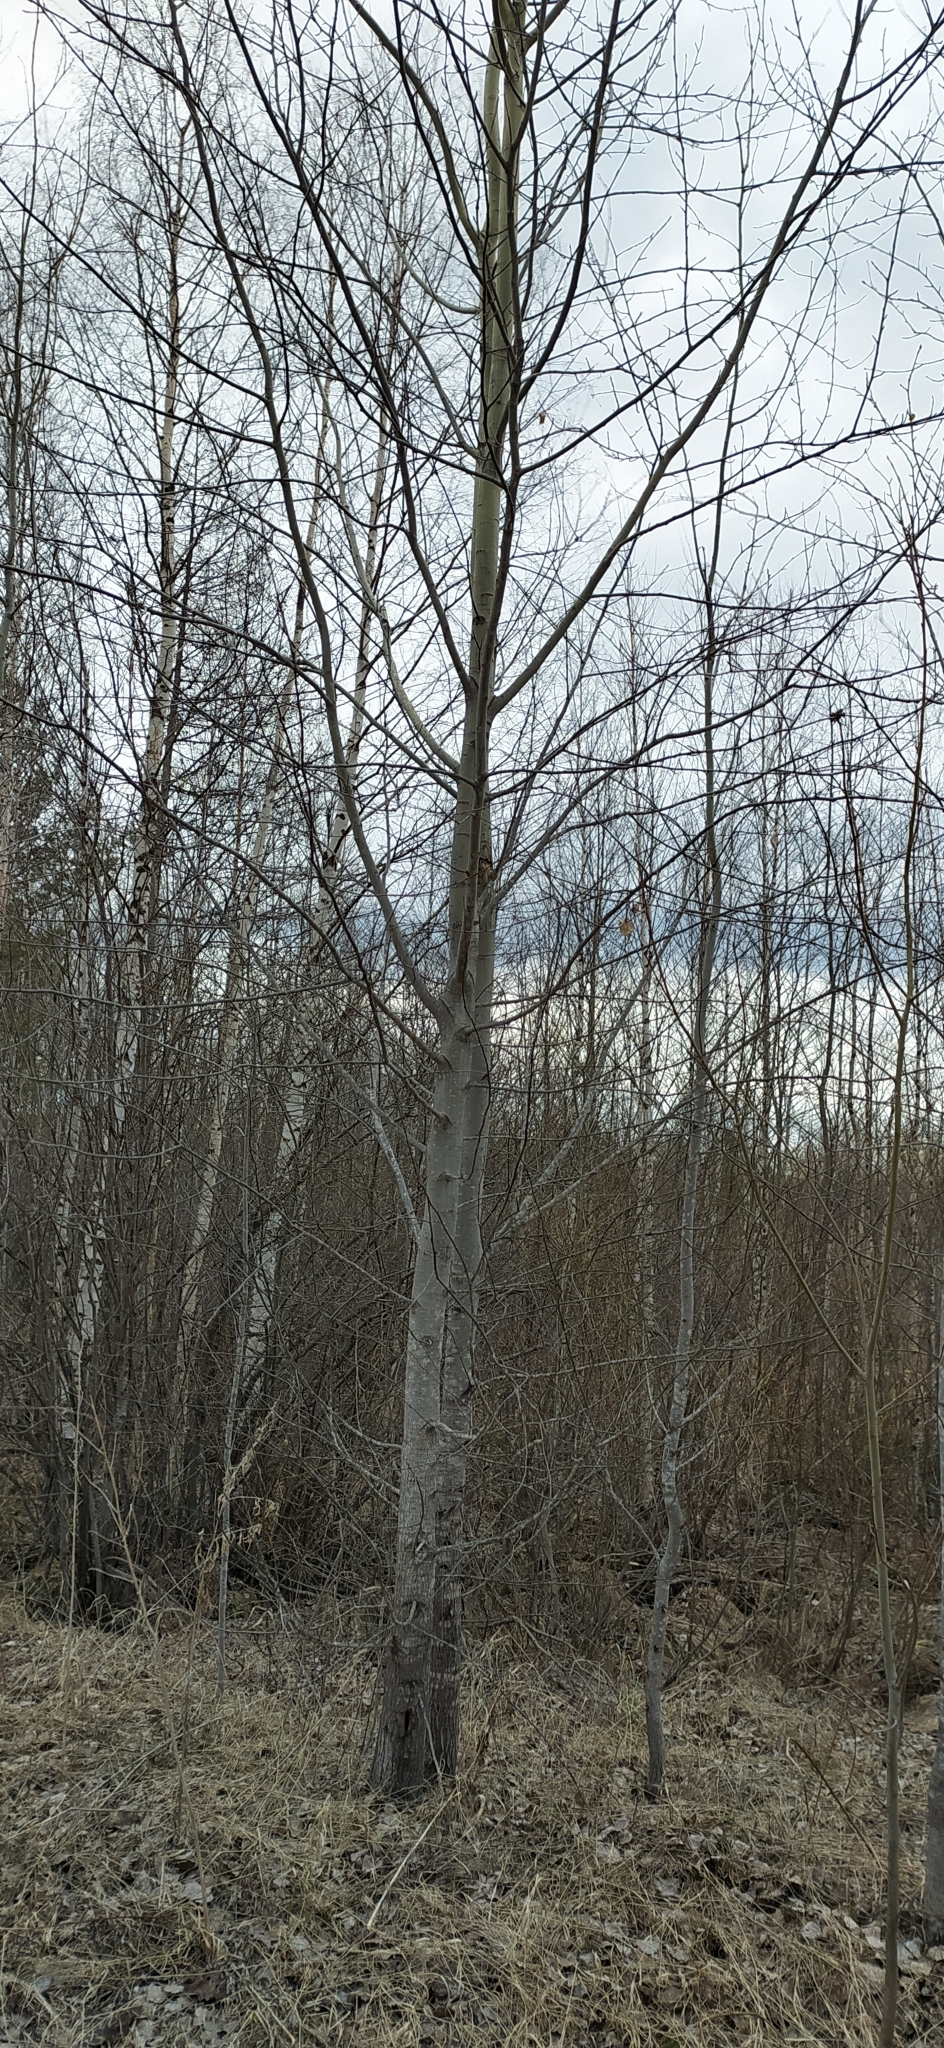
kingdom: Plantae
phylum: Tracheophyta
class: Magnoliopsida
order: Malpighiales
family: Salicaceae
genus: Populus
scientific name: Populus tremula
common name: European aspen
